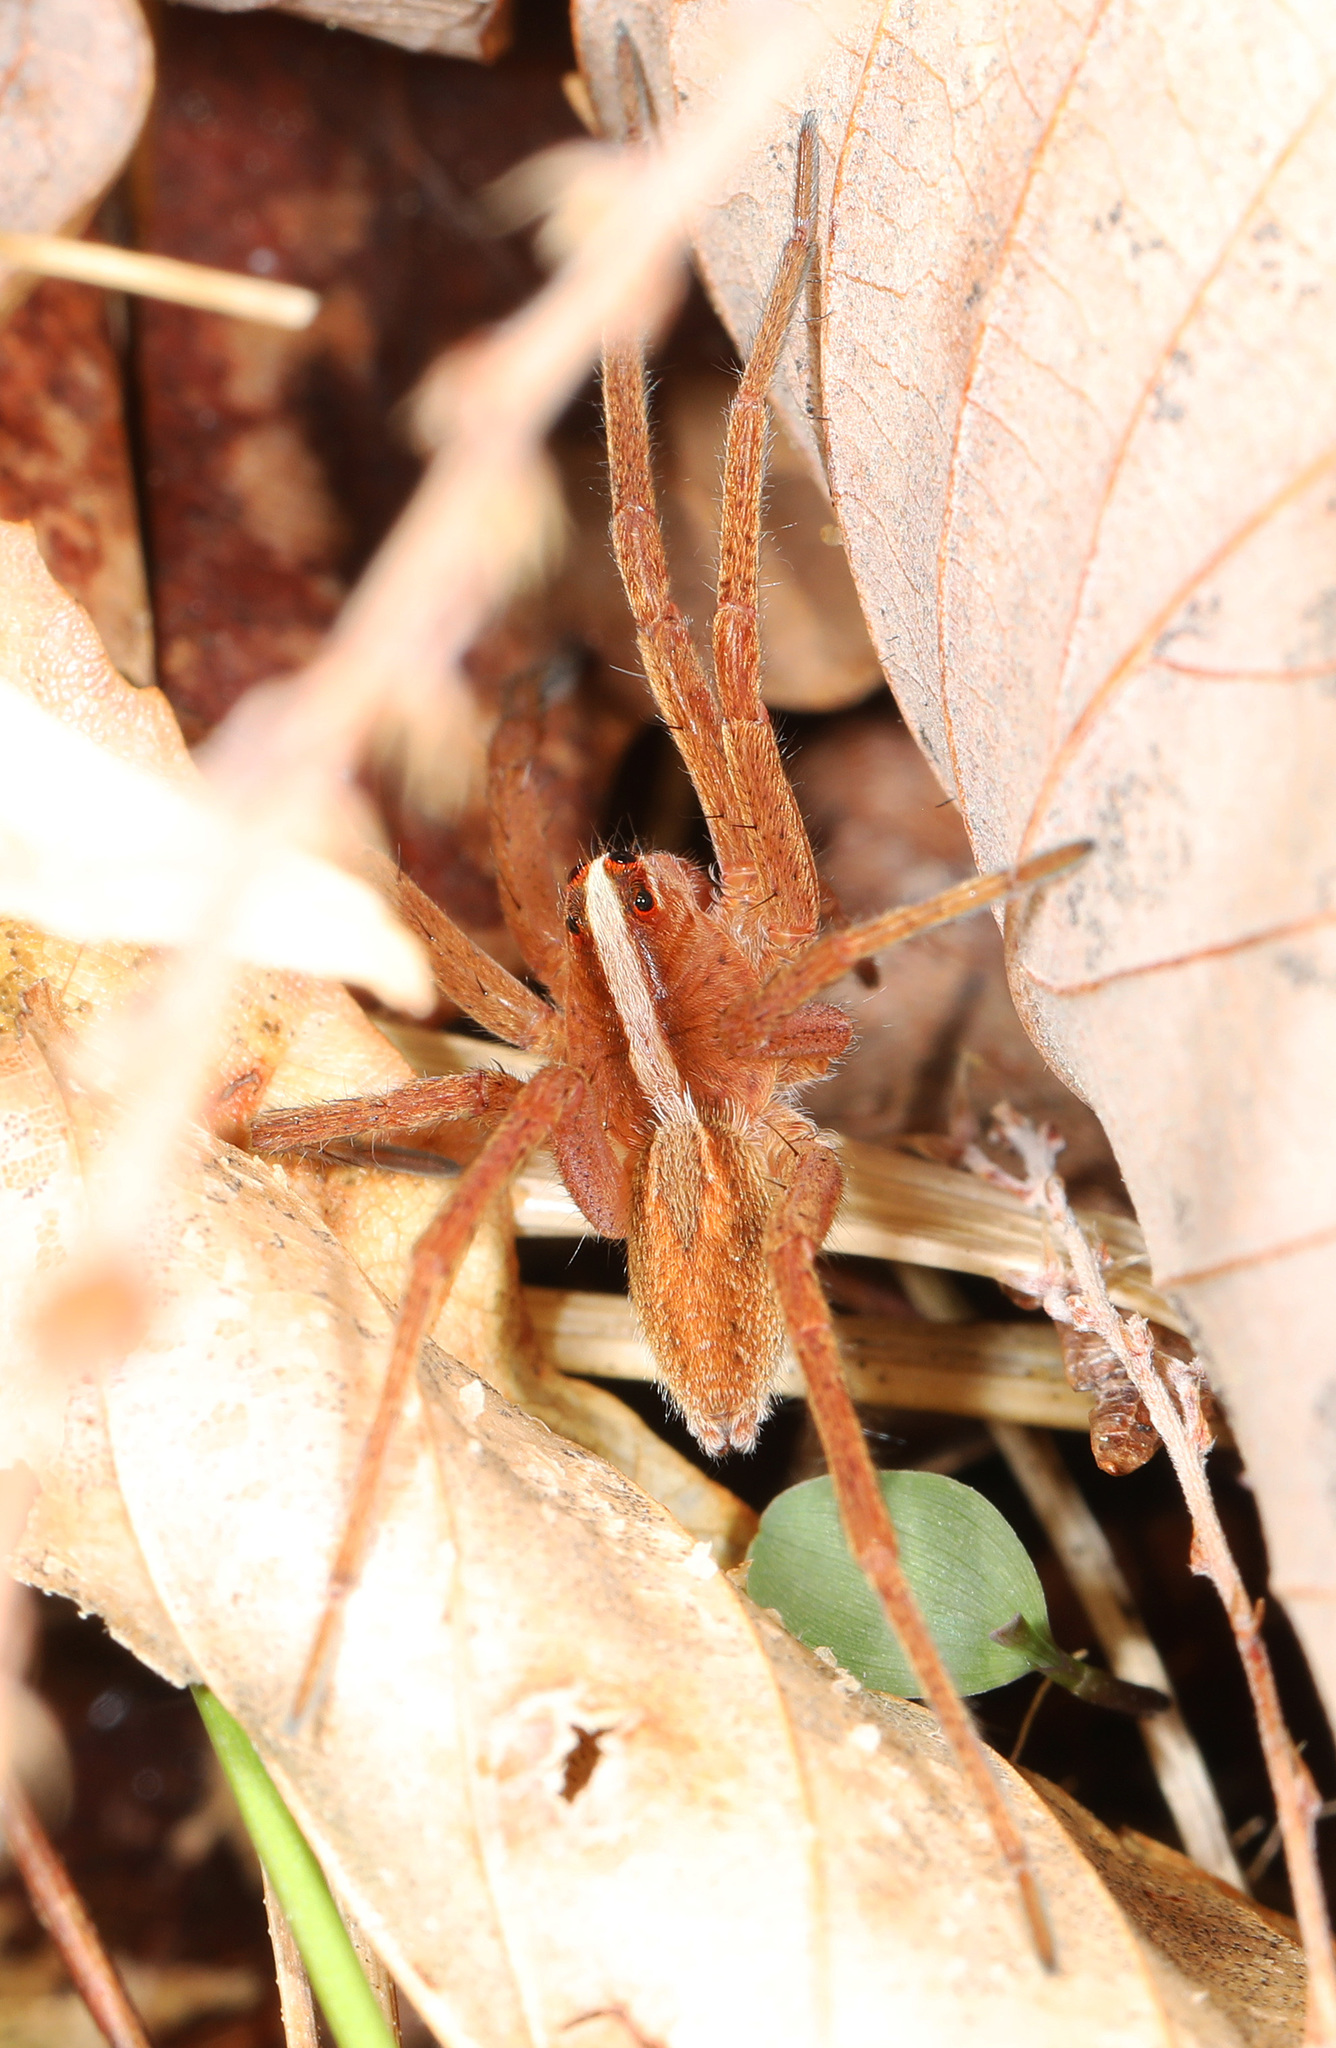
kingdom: Animalia
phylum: Arthropoda
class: Arachnida
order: Araneae
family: Lycosidae
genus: Rabidosa
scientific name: Rabidosa hentzi
